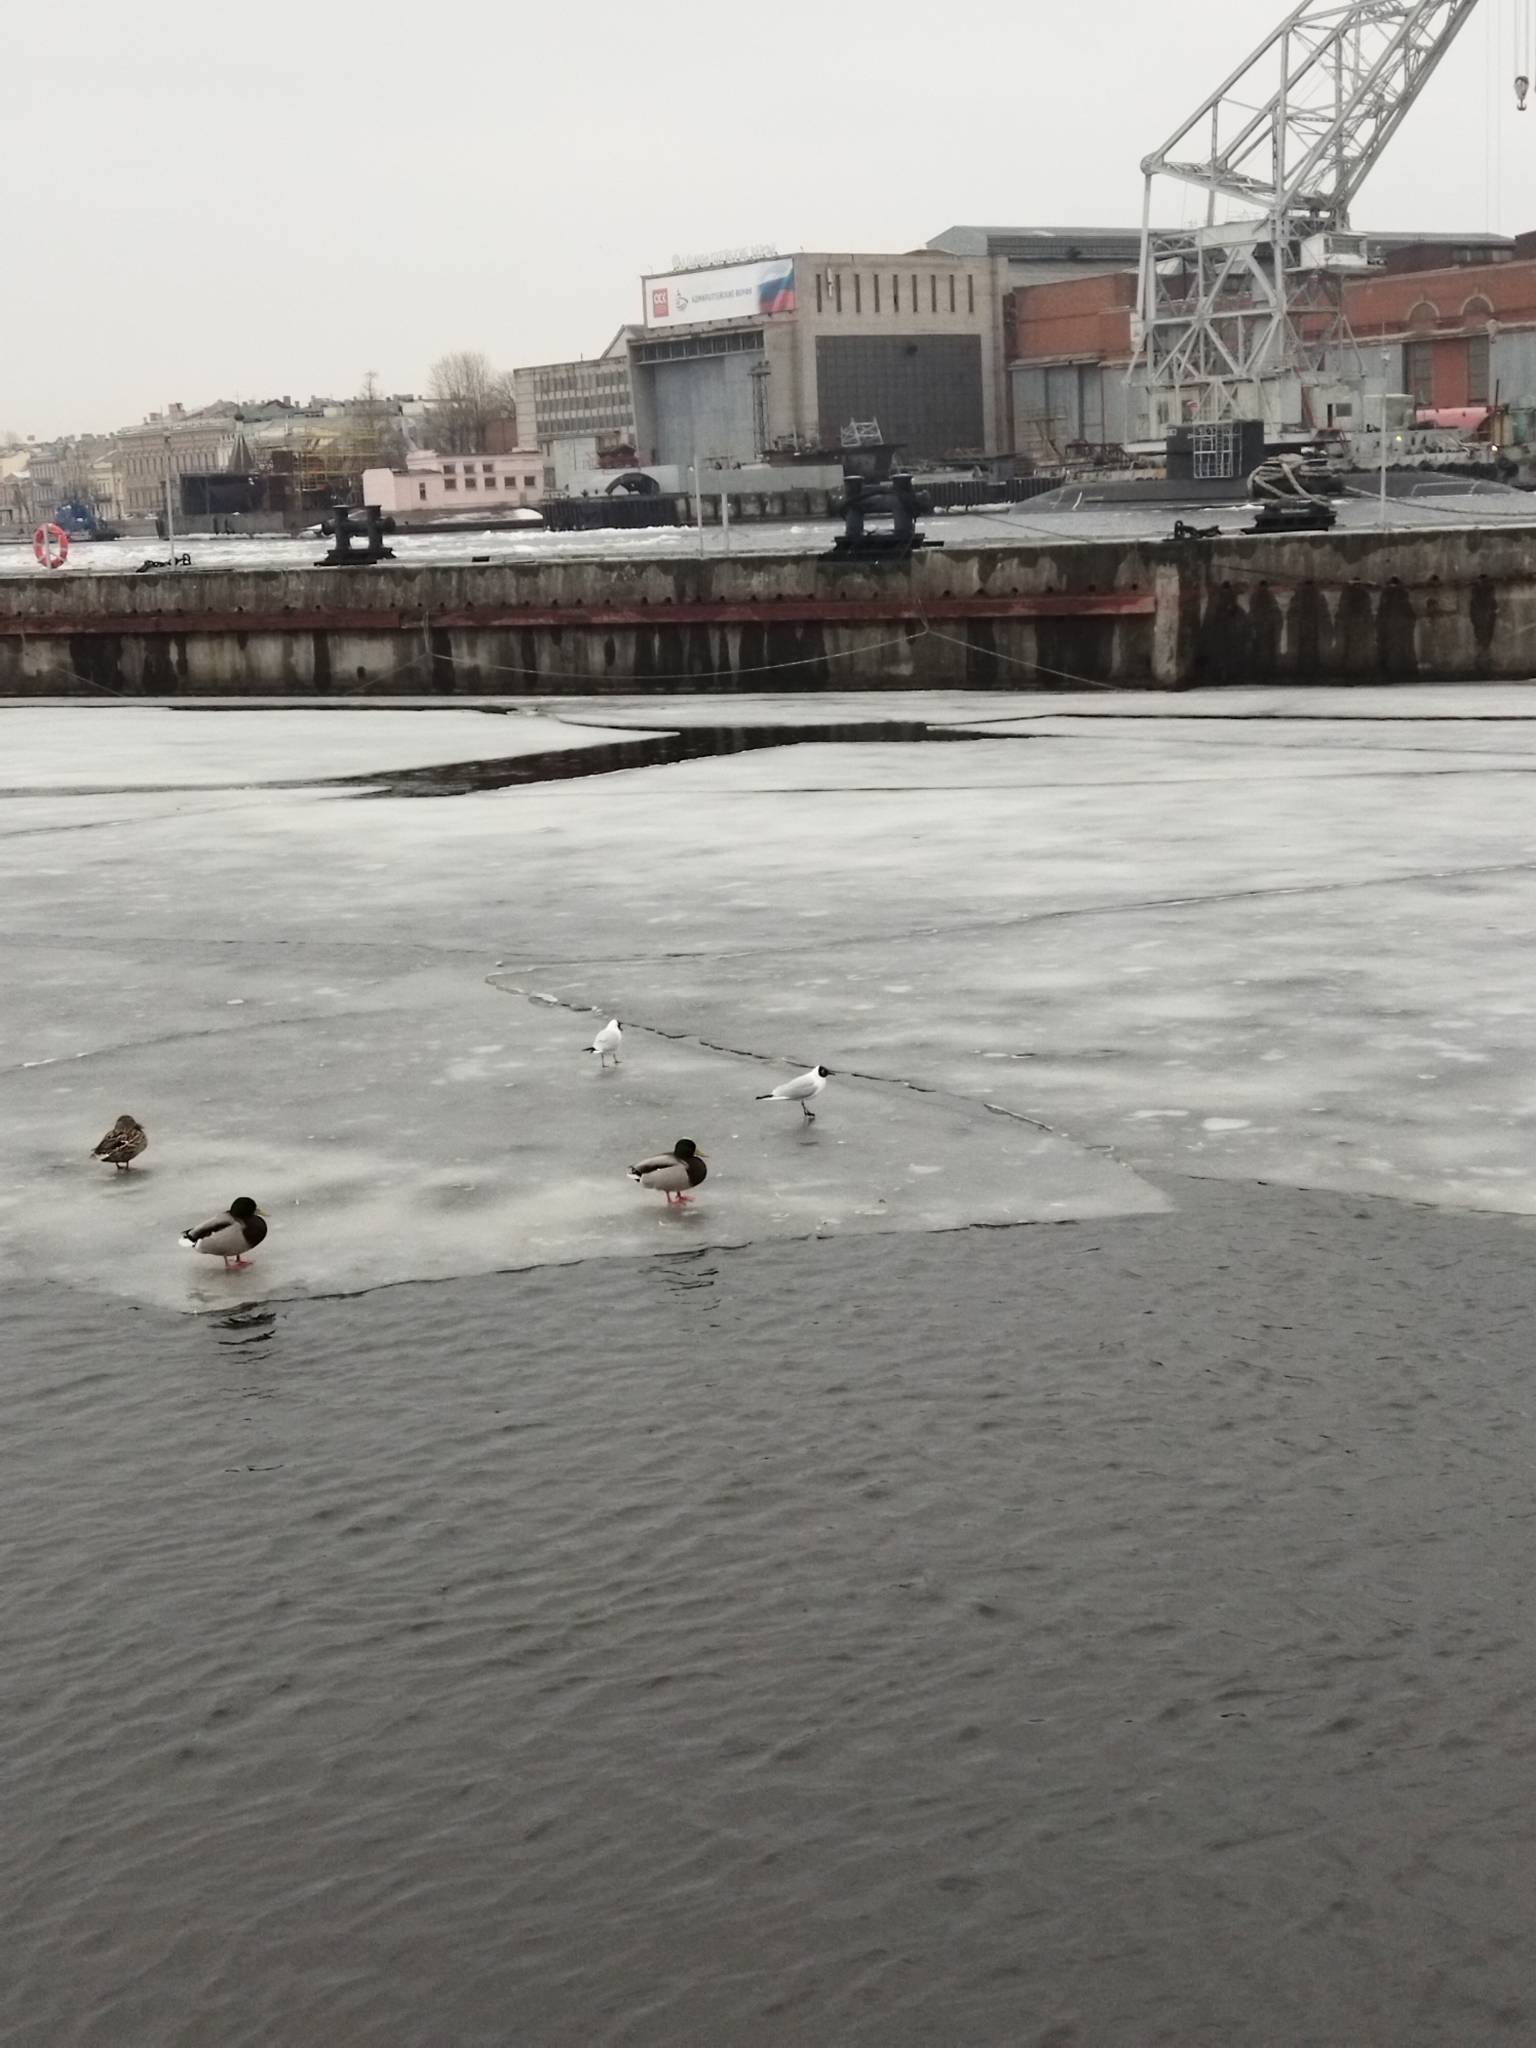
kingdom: Animalia
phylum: Chordata
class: Aves
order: Charadriiformes
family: Laridae
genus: Chroicocephalus
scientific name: Chroicocephalus ridibundus
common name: Black-headed gull
